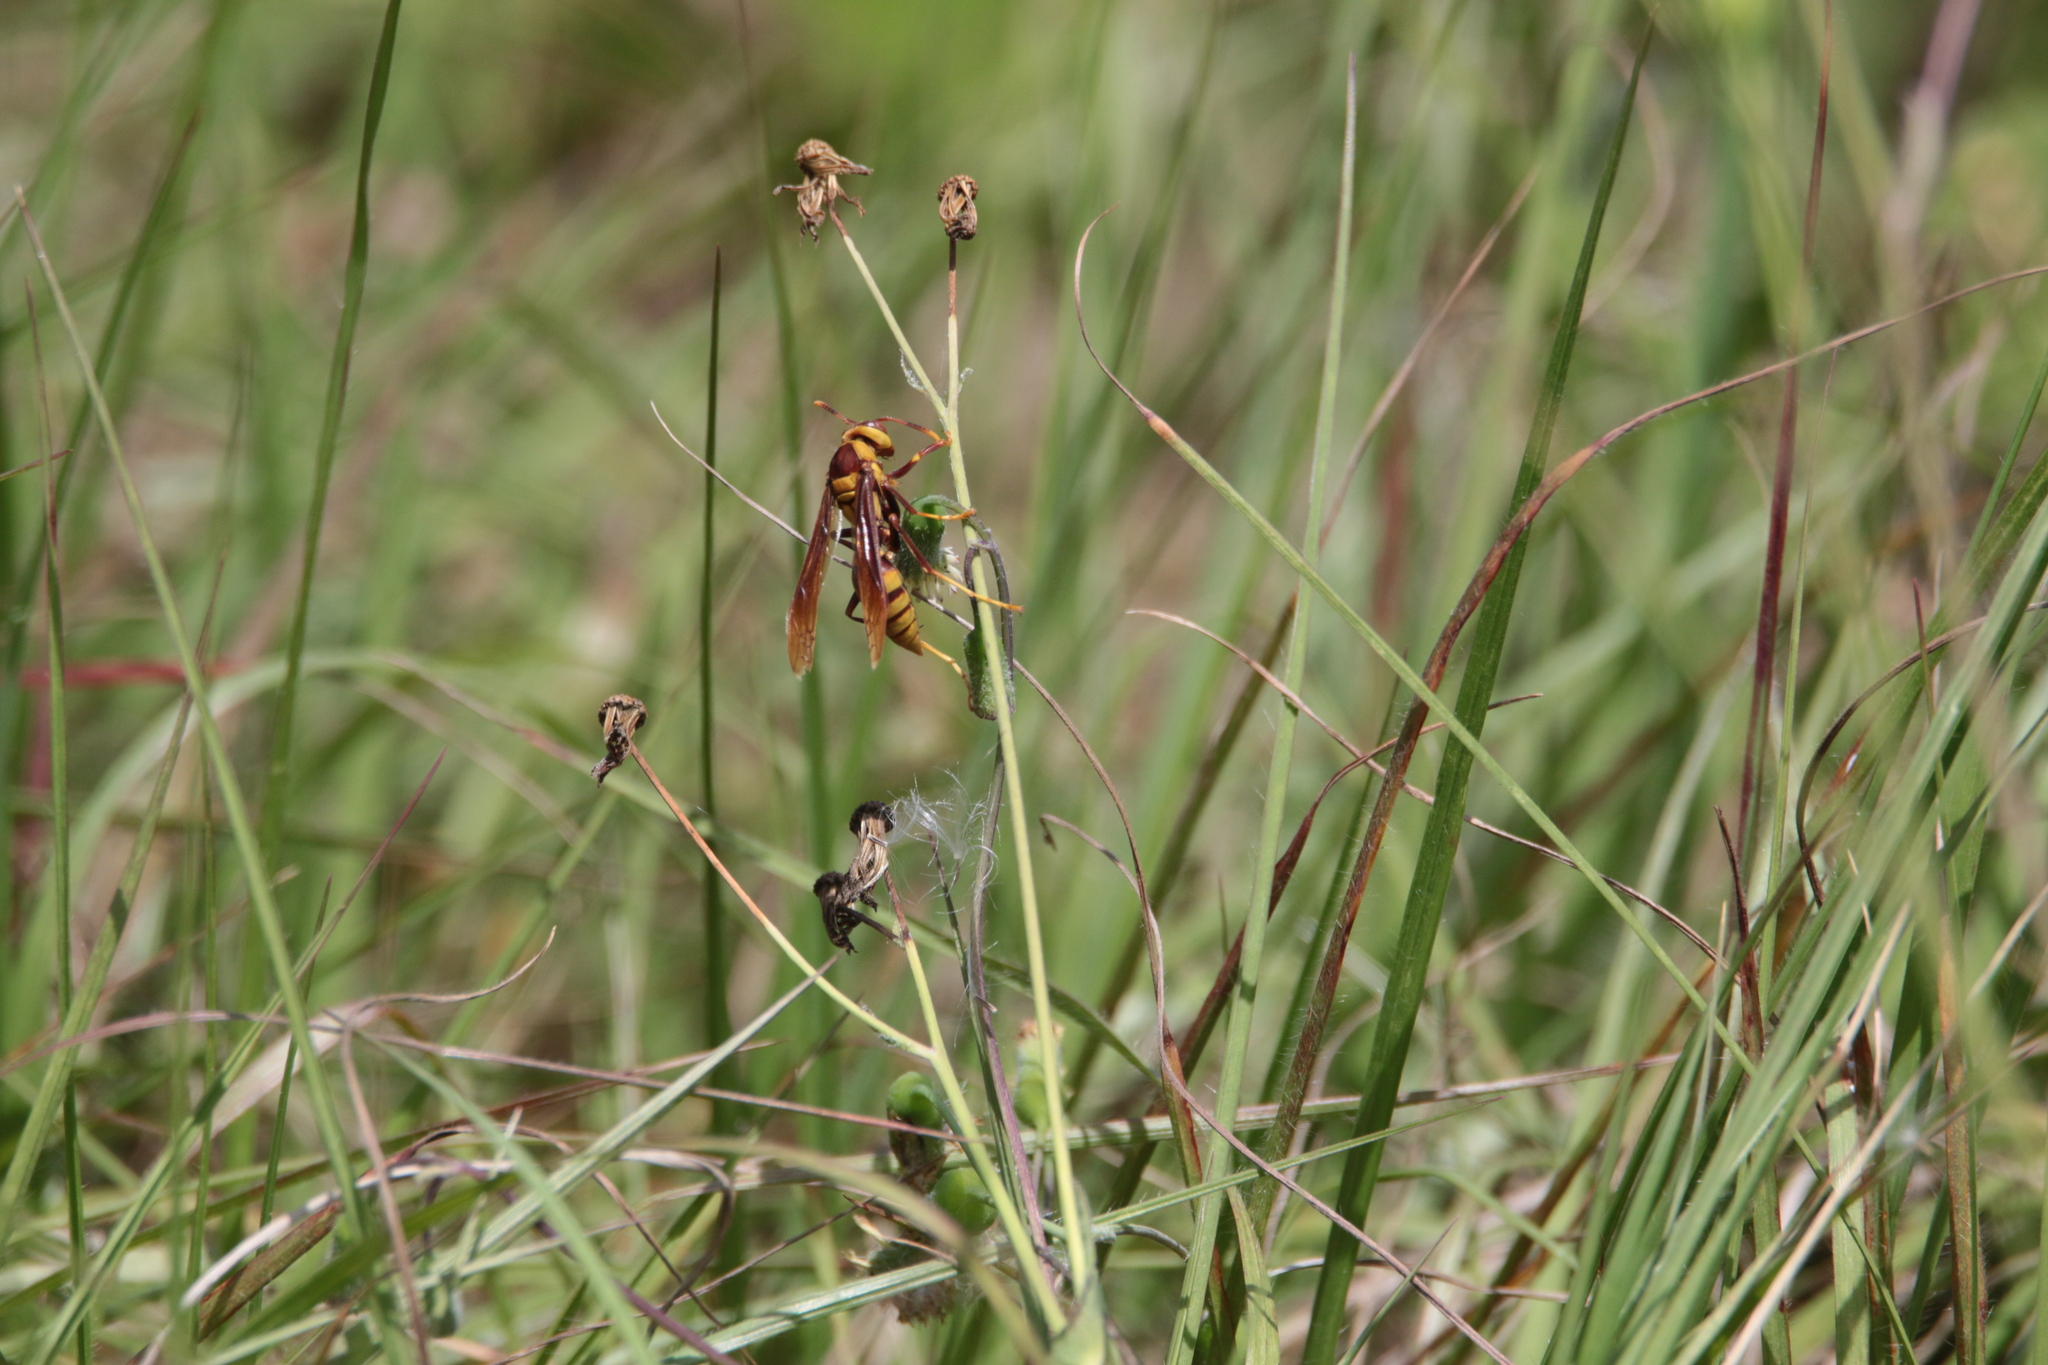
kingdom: Animalia
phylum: Arthropoda
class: Insecta
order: Hymenoptera
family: Eumenidae
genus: Polistes
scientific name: Polistes major
